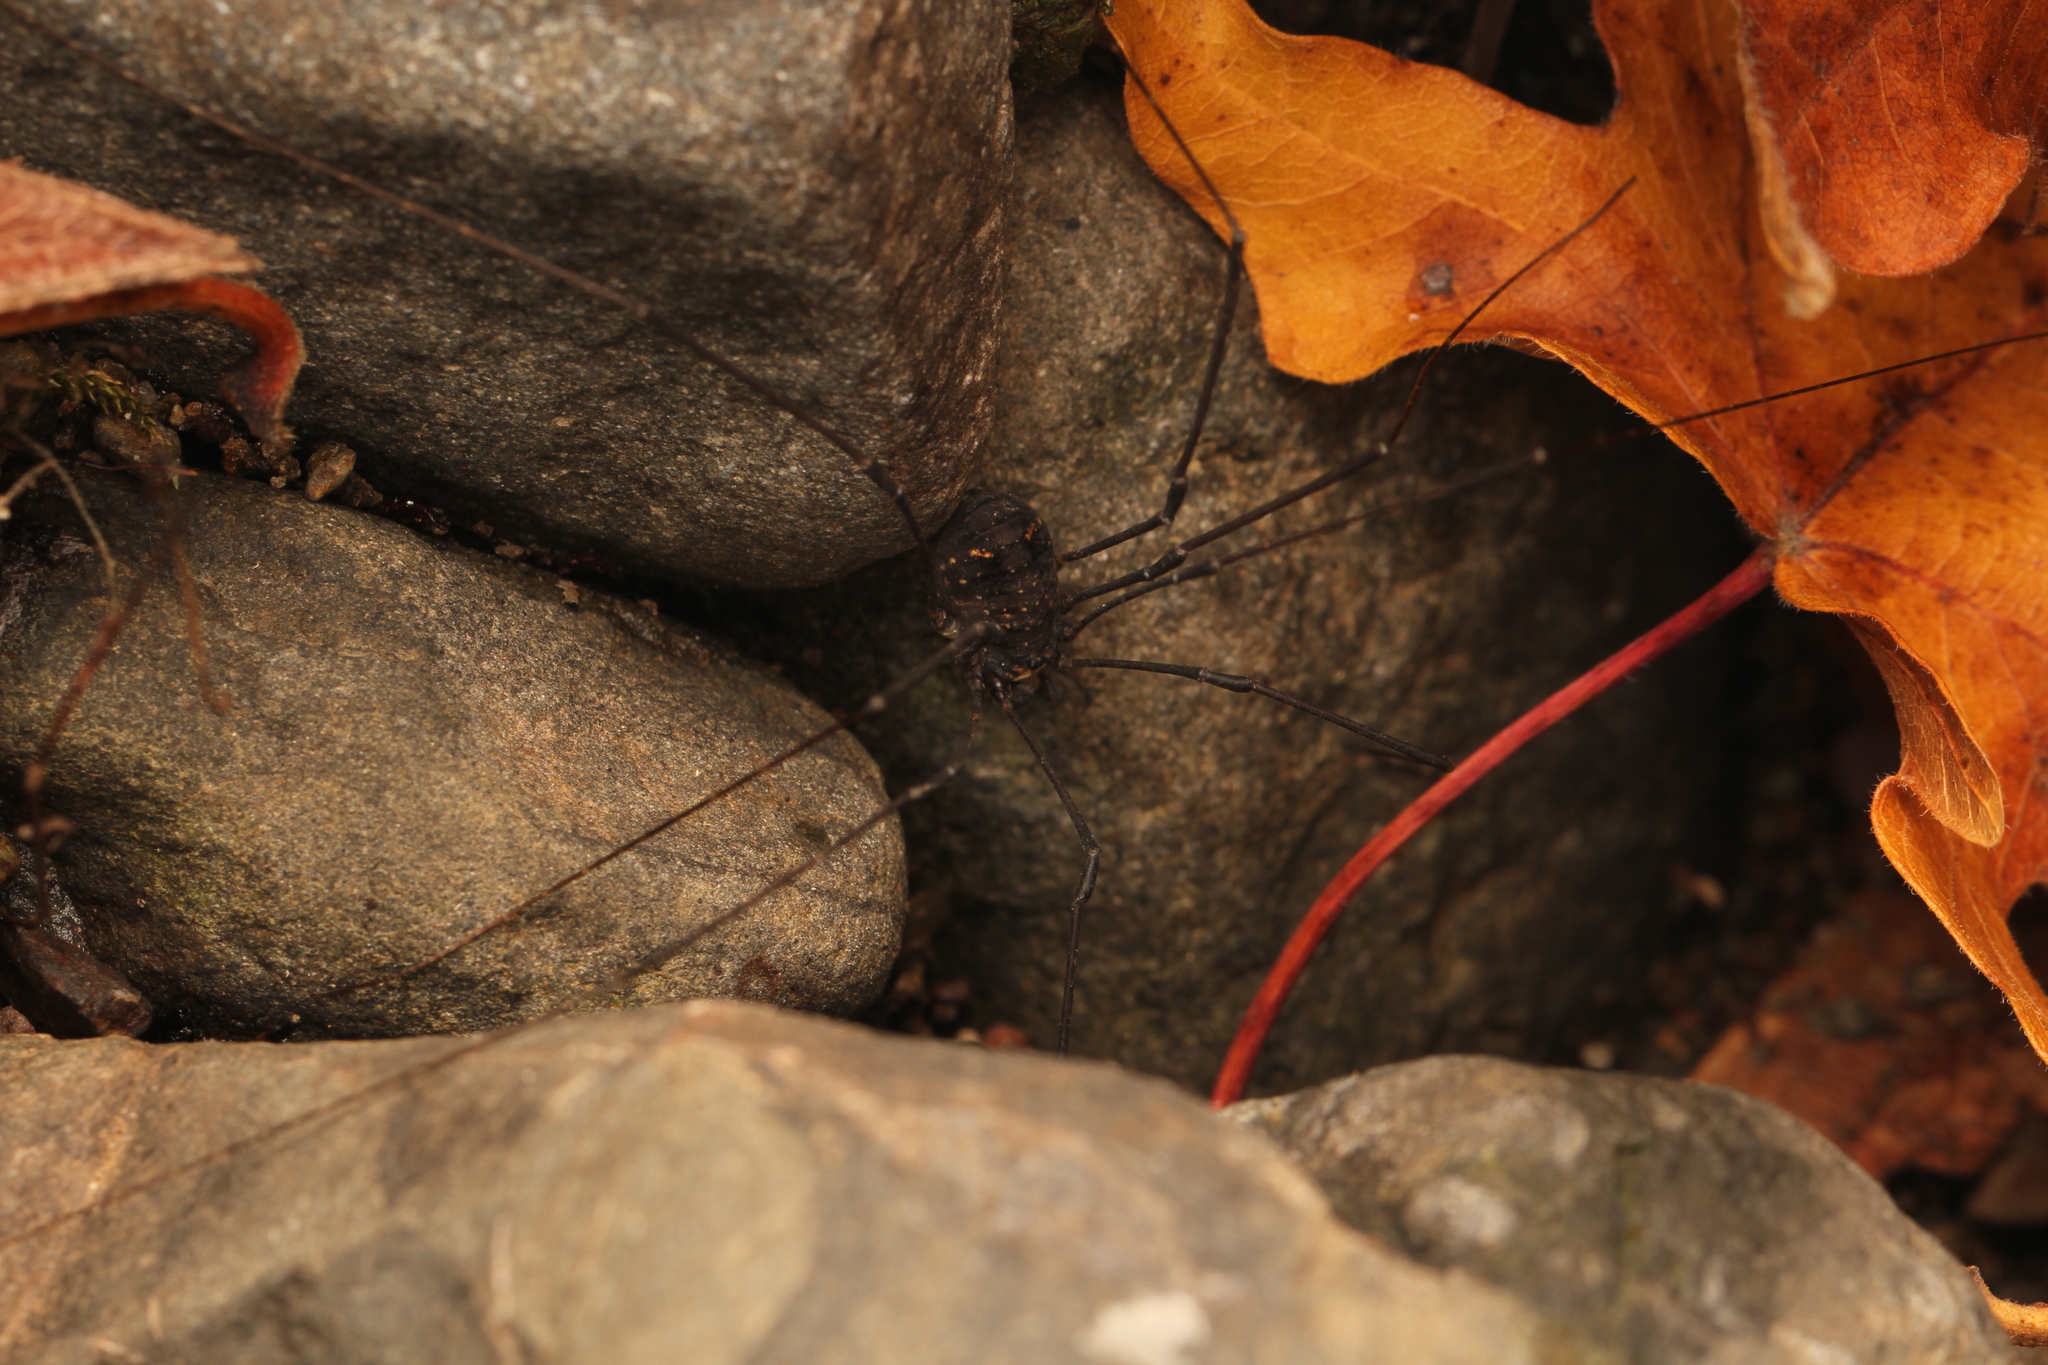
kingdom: Animalia
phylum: Arthropoda
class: Arachnida
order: Opiliones
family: Sclerosomatidae
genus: Leiobunum
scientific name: Leiobunum exilipes
